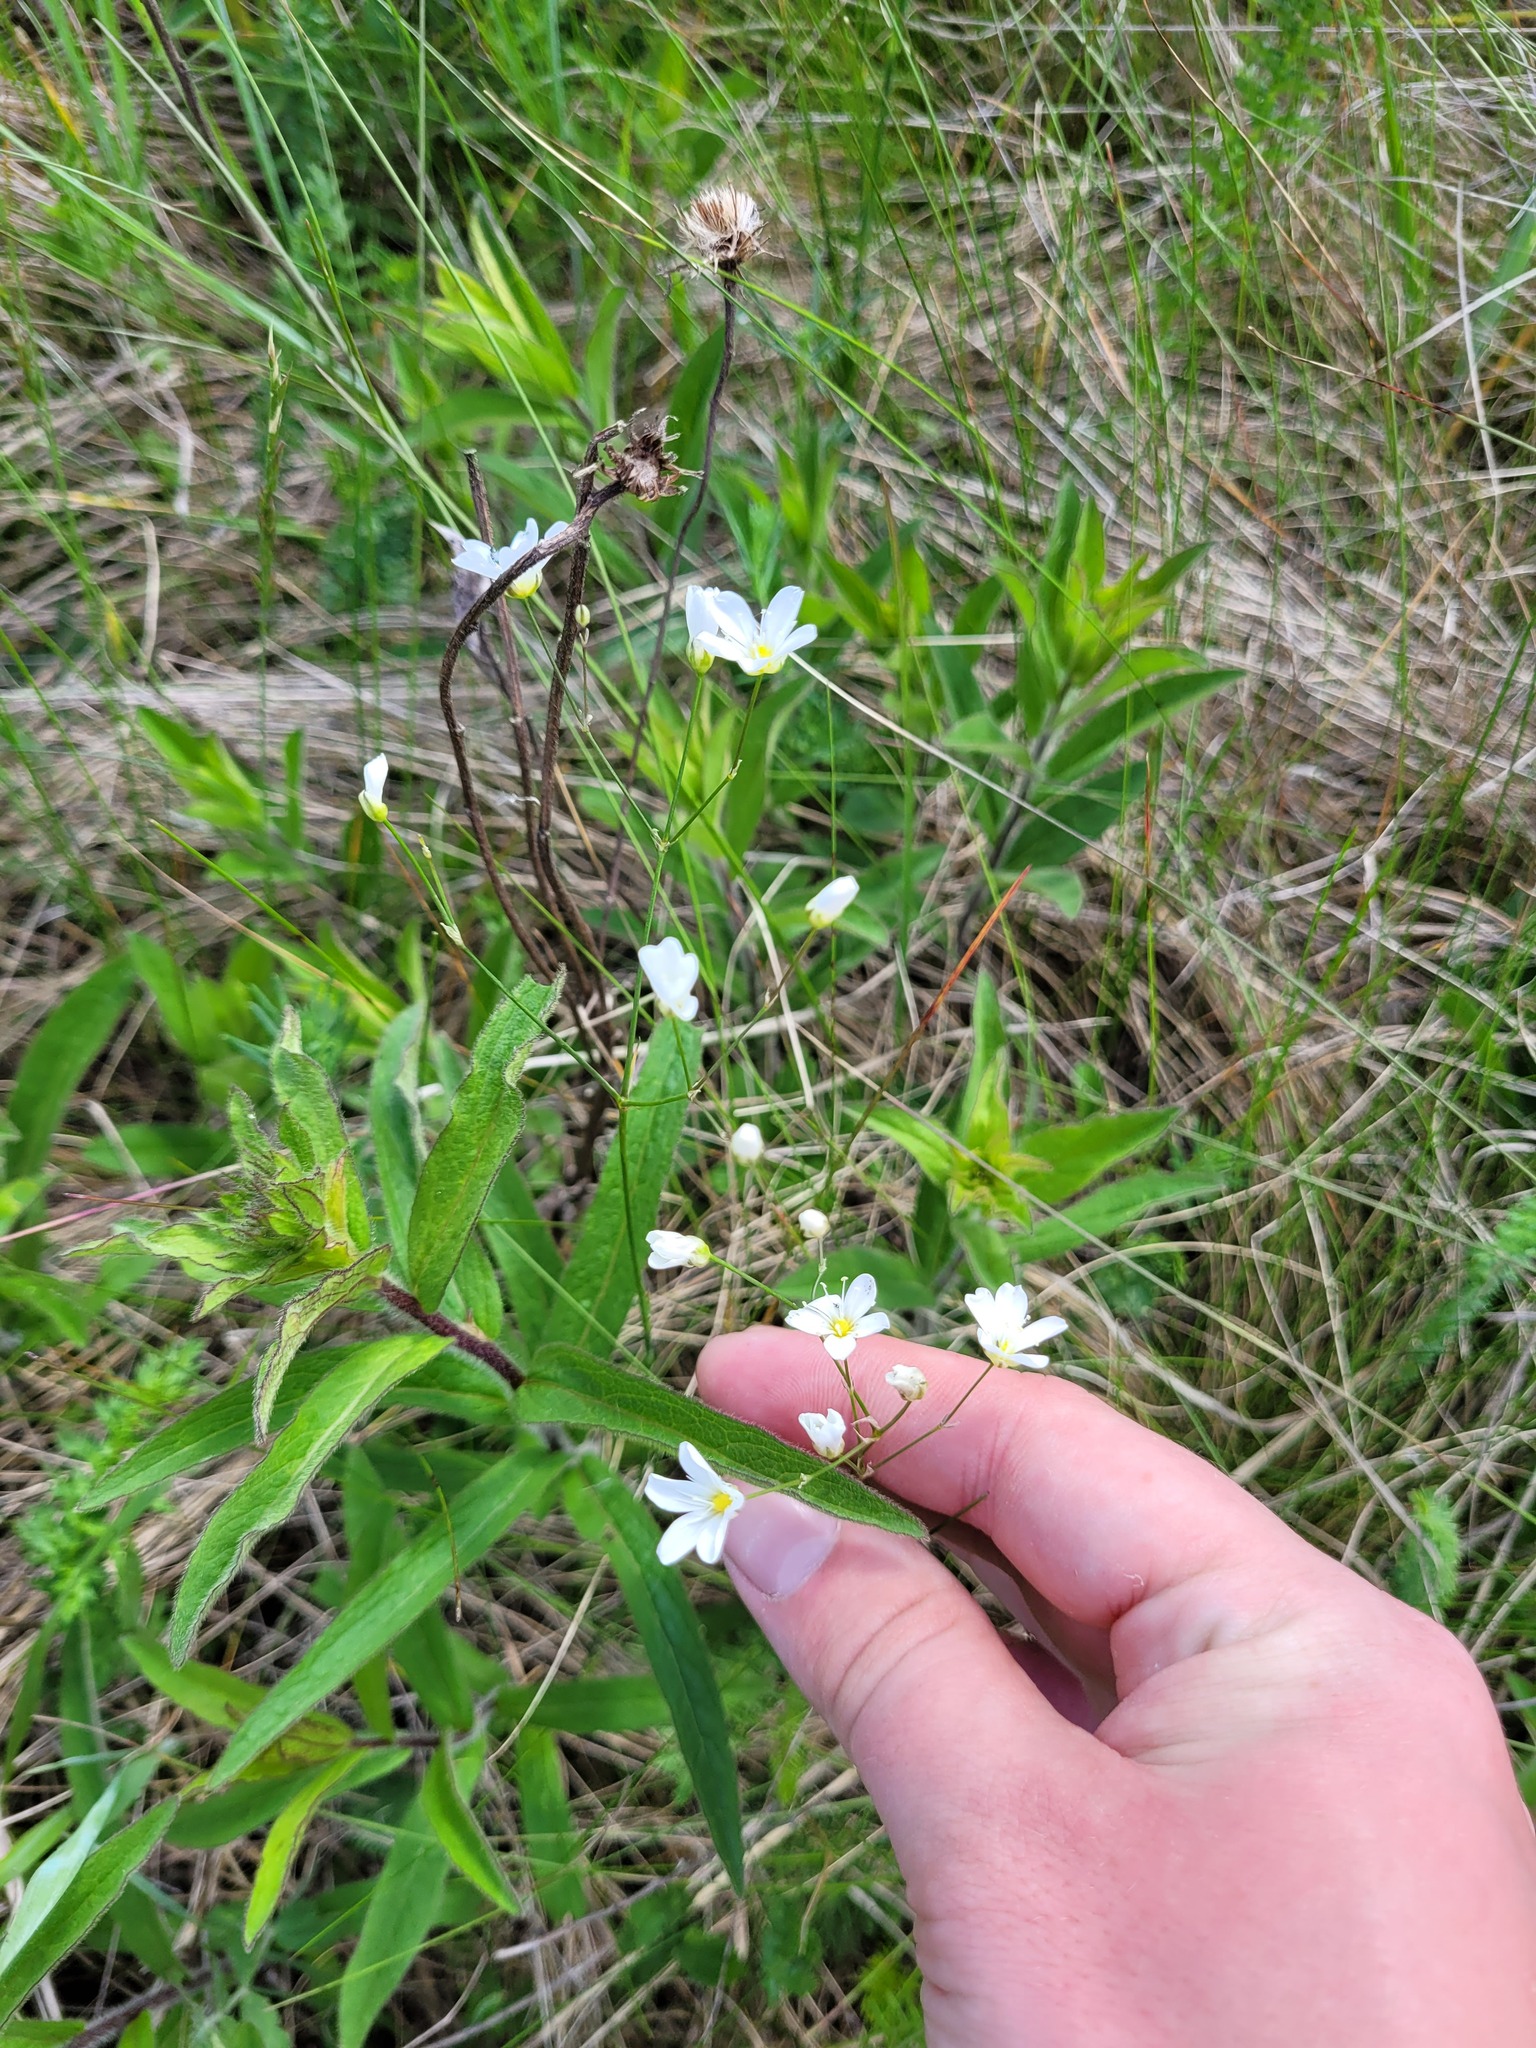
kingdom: Plantae
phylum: Tracheophyta
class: Magnoliopsida
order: Caryophyllales
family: Caryophyllaceae
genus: Eremogone
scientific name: Eremogone saxatilis
